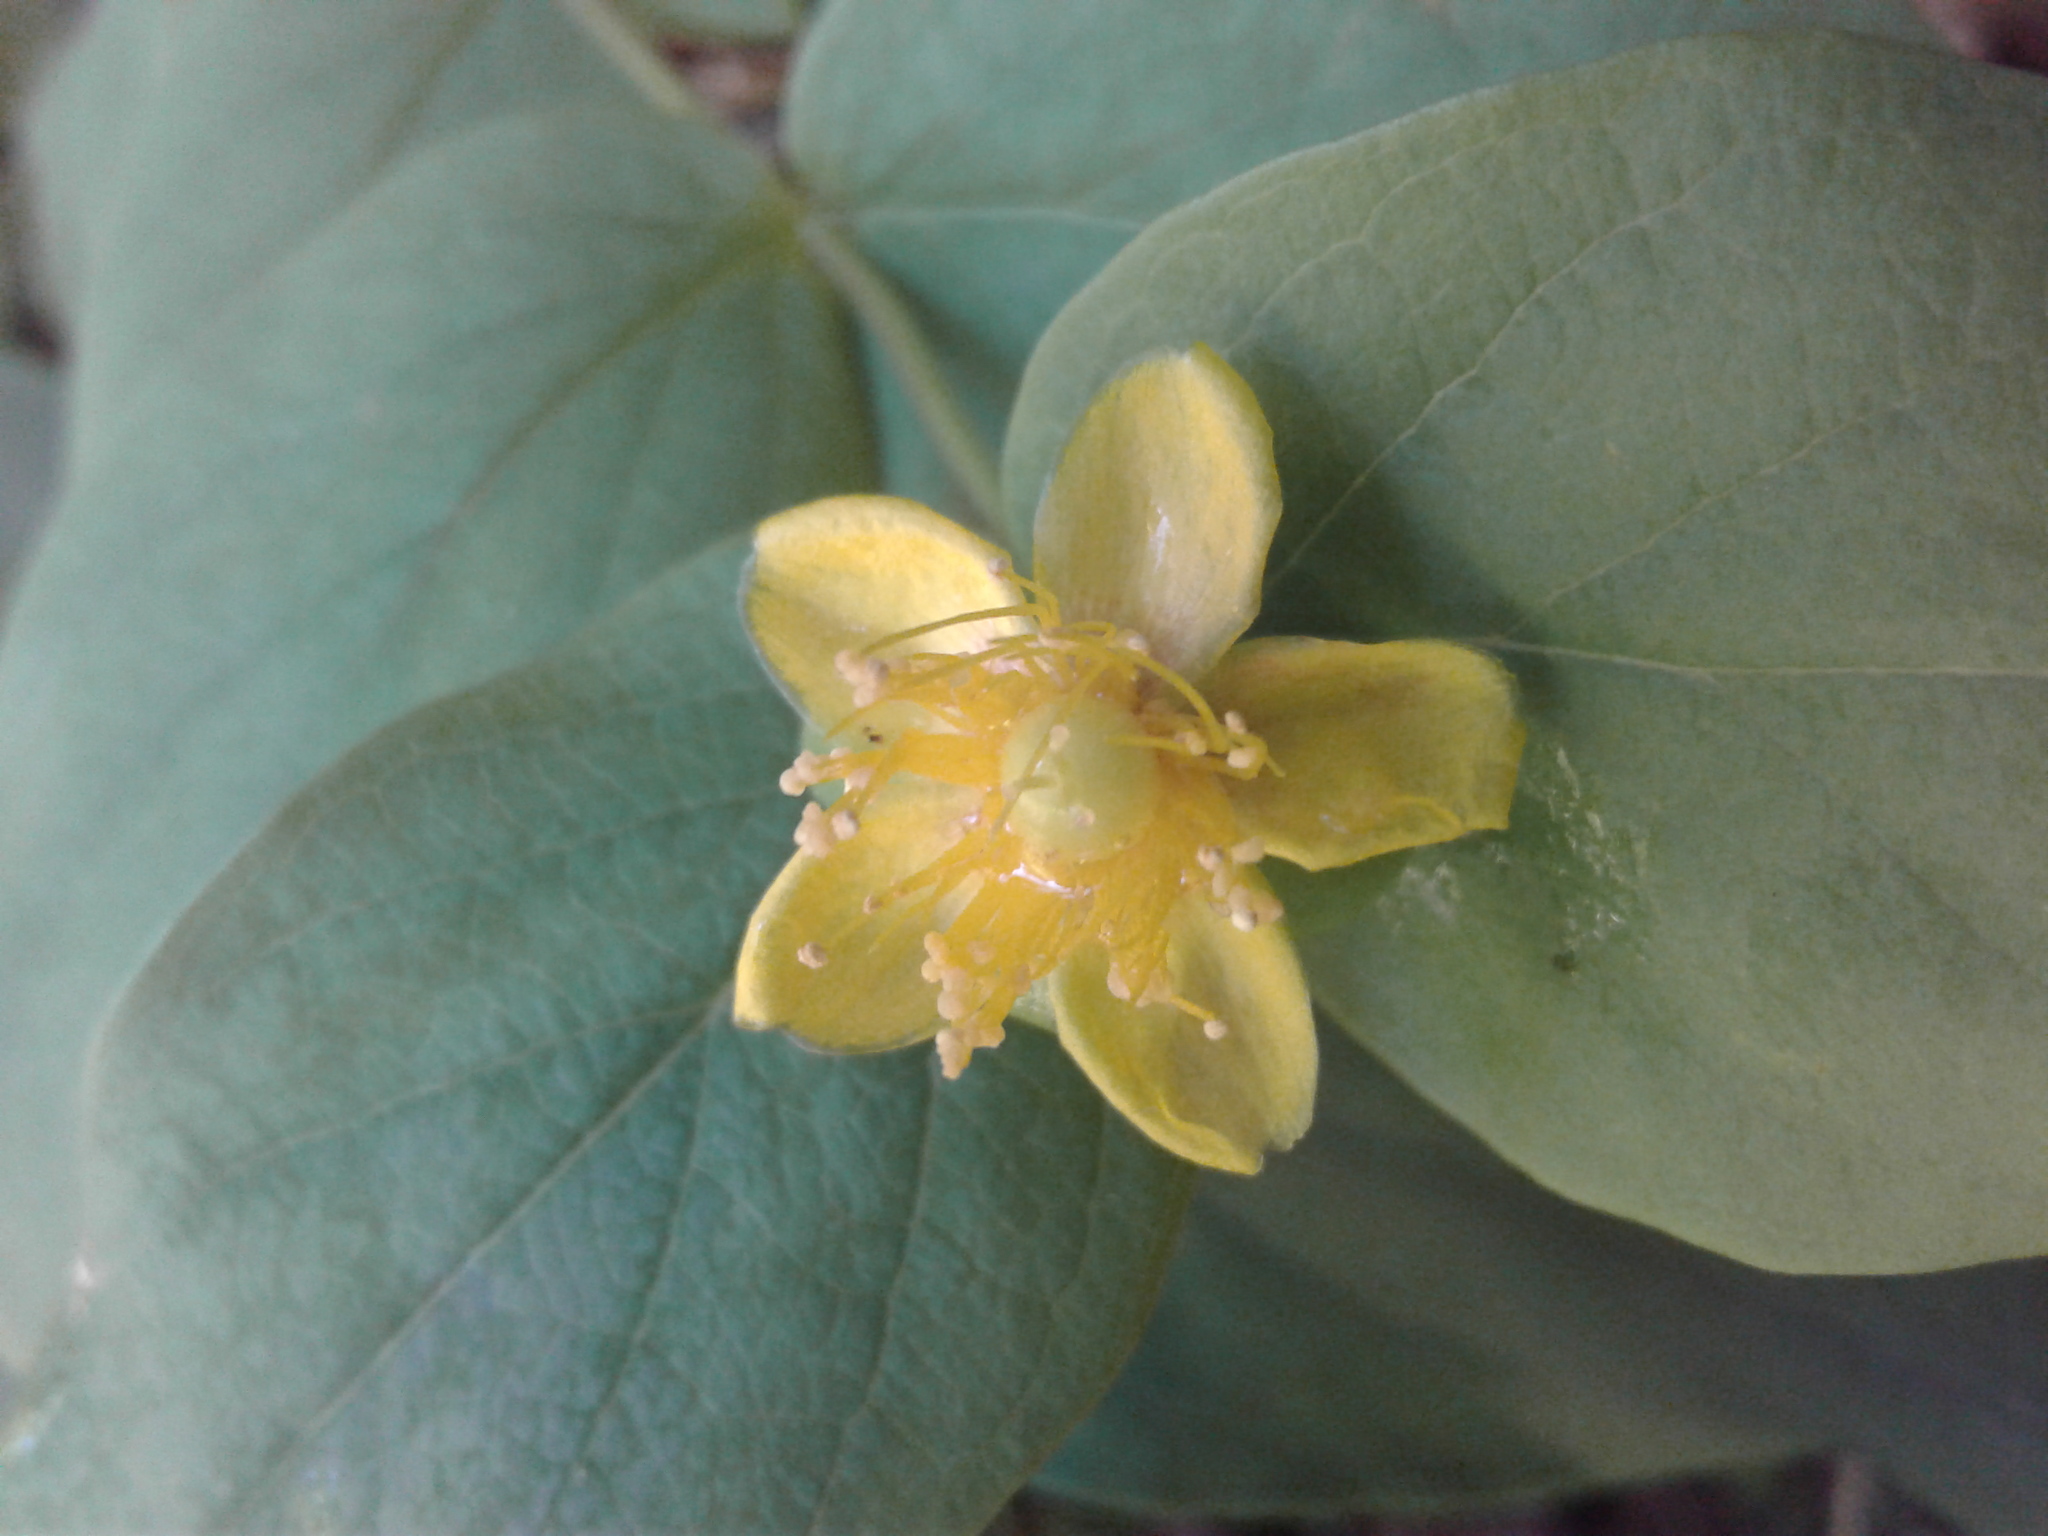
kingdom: Plantae
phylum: Tracheophyta
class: Magnoliopsida
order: Malpighiales
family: Hypericaceae
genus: Hypericum
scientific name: Hypericum androsaemum
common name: Sweet-amber
